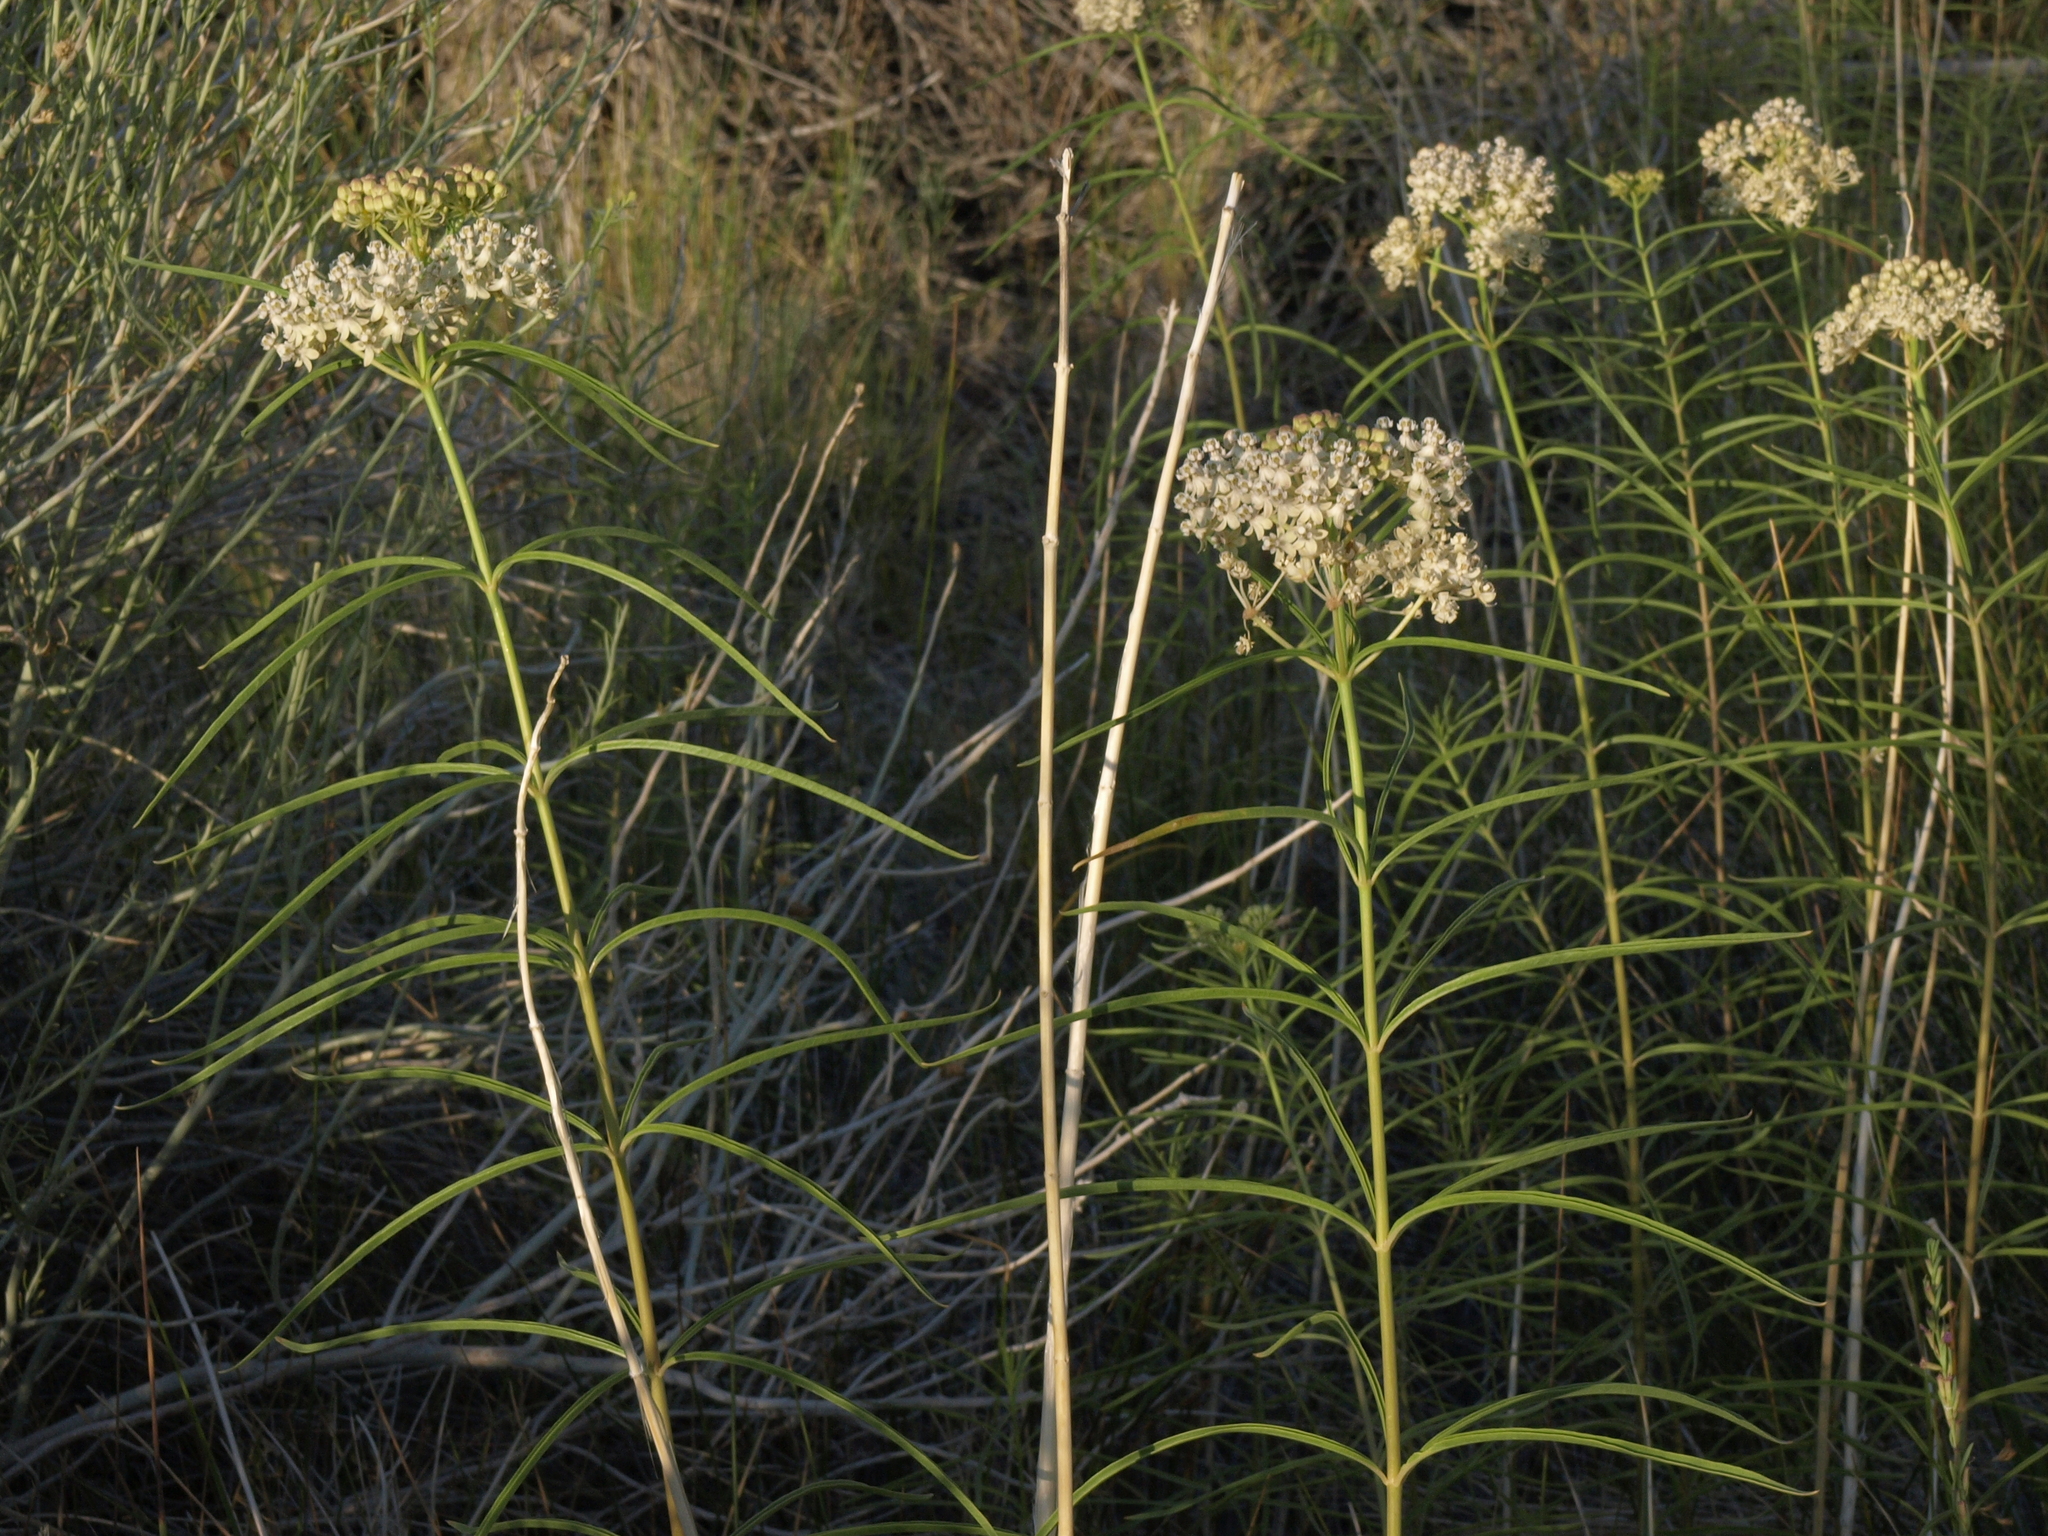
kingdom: Plantae
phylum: Tracheophyta
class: Magnoliopsida
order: Gentianales
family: Apocynaceae
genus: Asclepias
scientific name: Asclepias fascicularis
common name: Mexican milkweed
